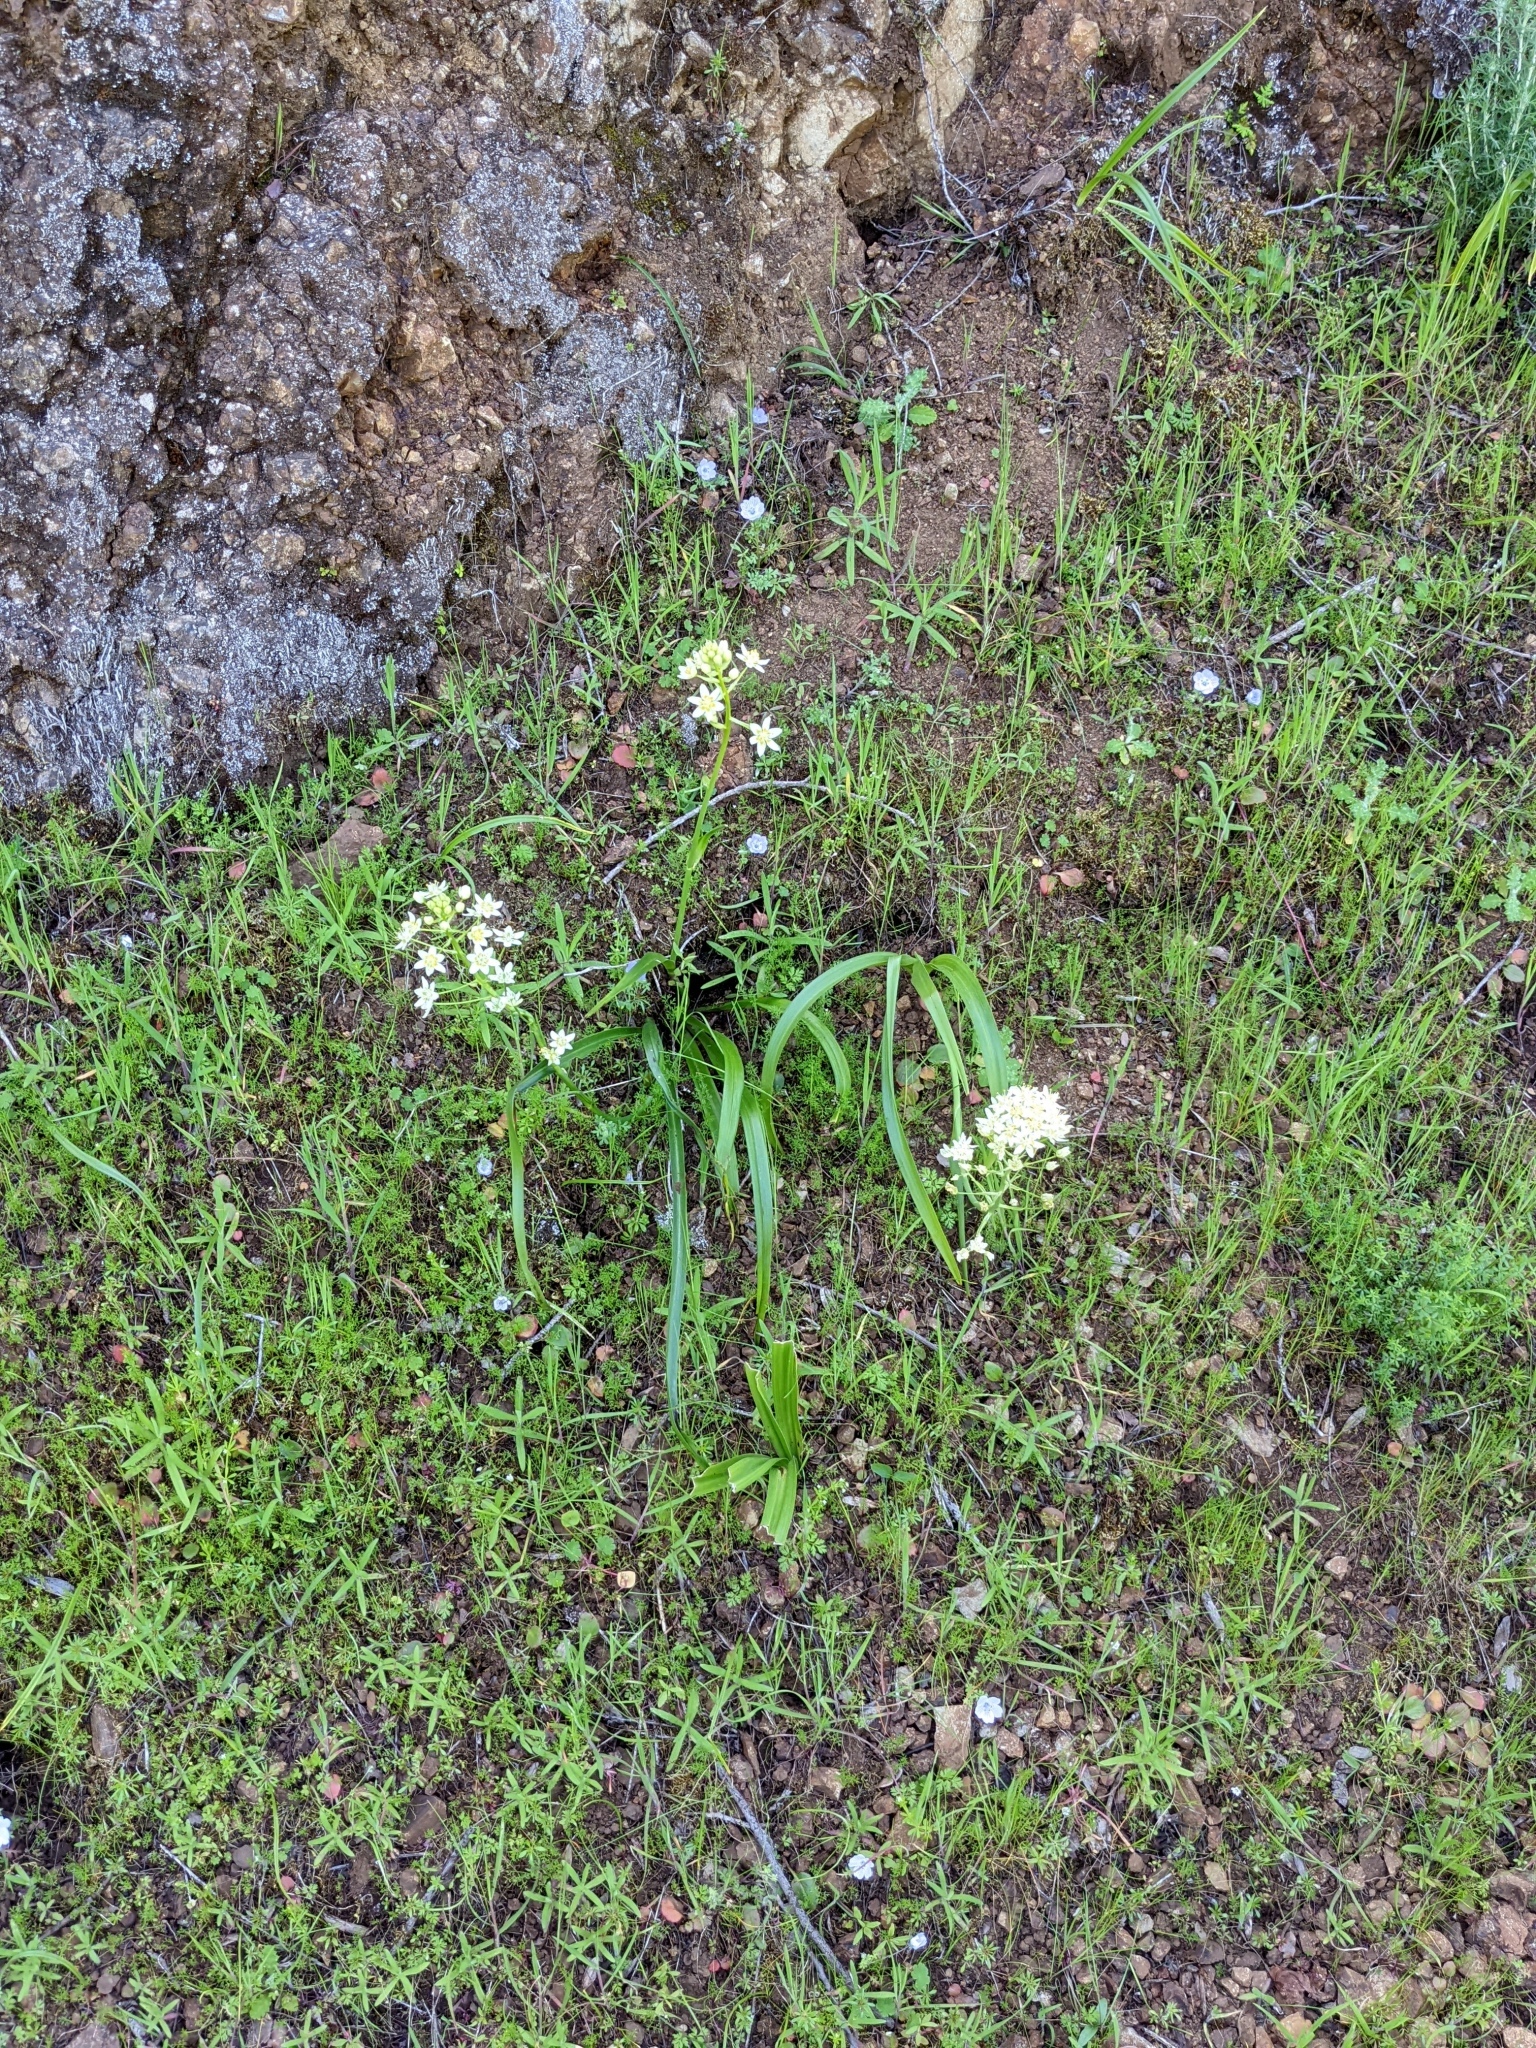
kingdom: Plantae
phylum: Tracheophyta
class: Liliopsida
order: Liliales
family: Melanthiaceae
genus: Toxicoscordion
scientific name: Toxicoscordion fremontii
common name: Fremont's death camas
